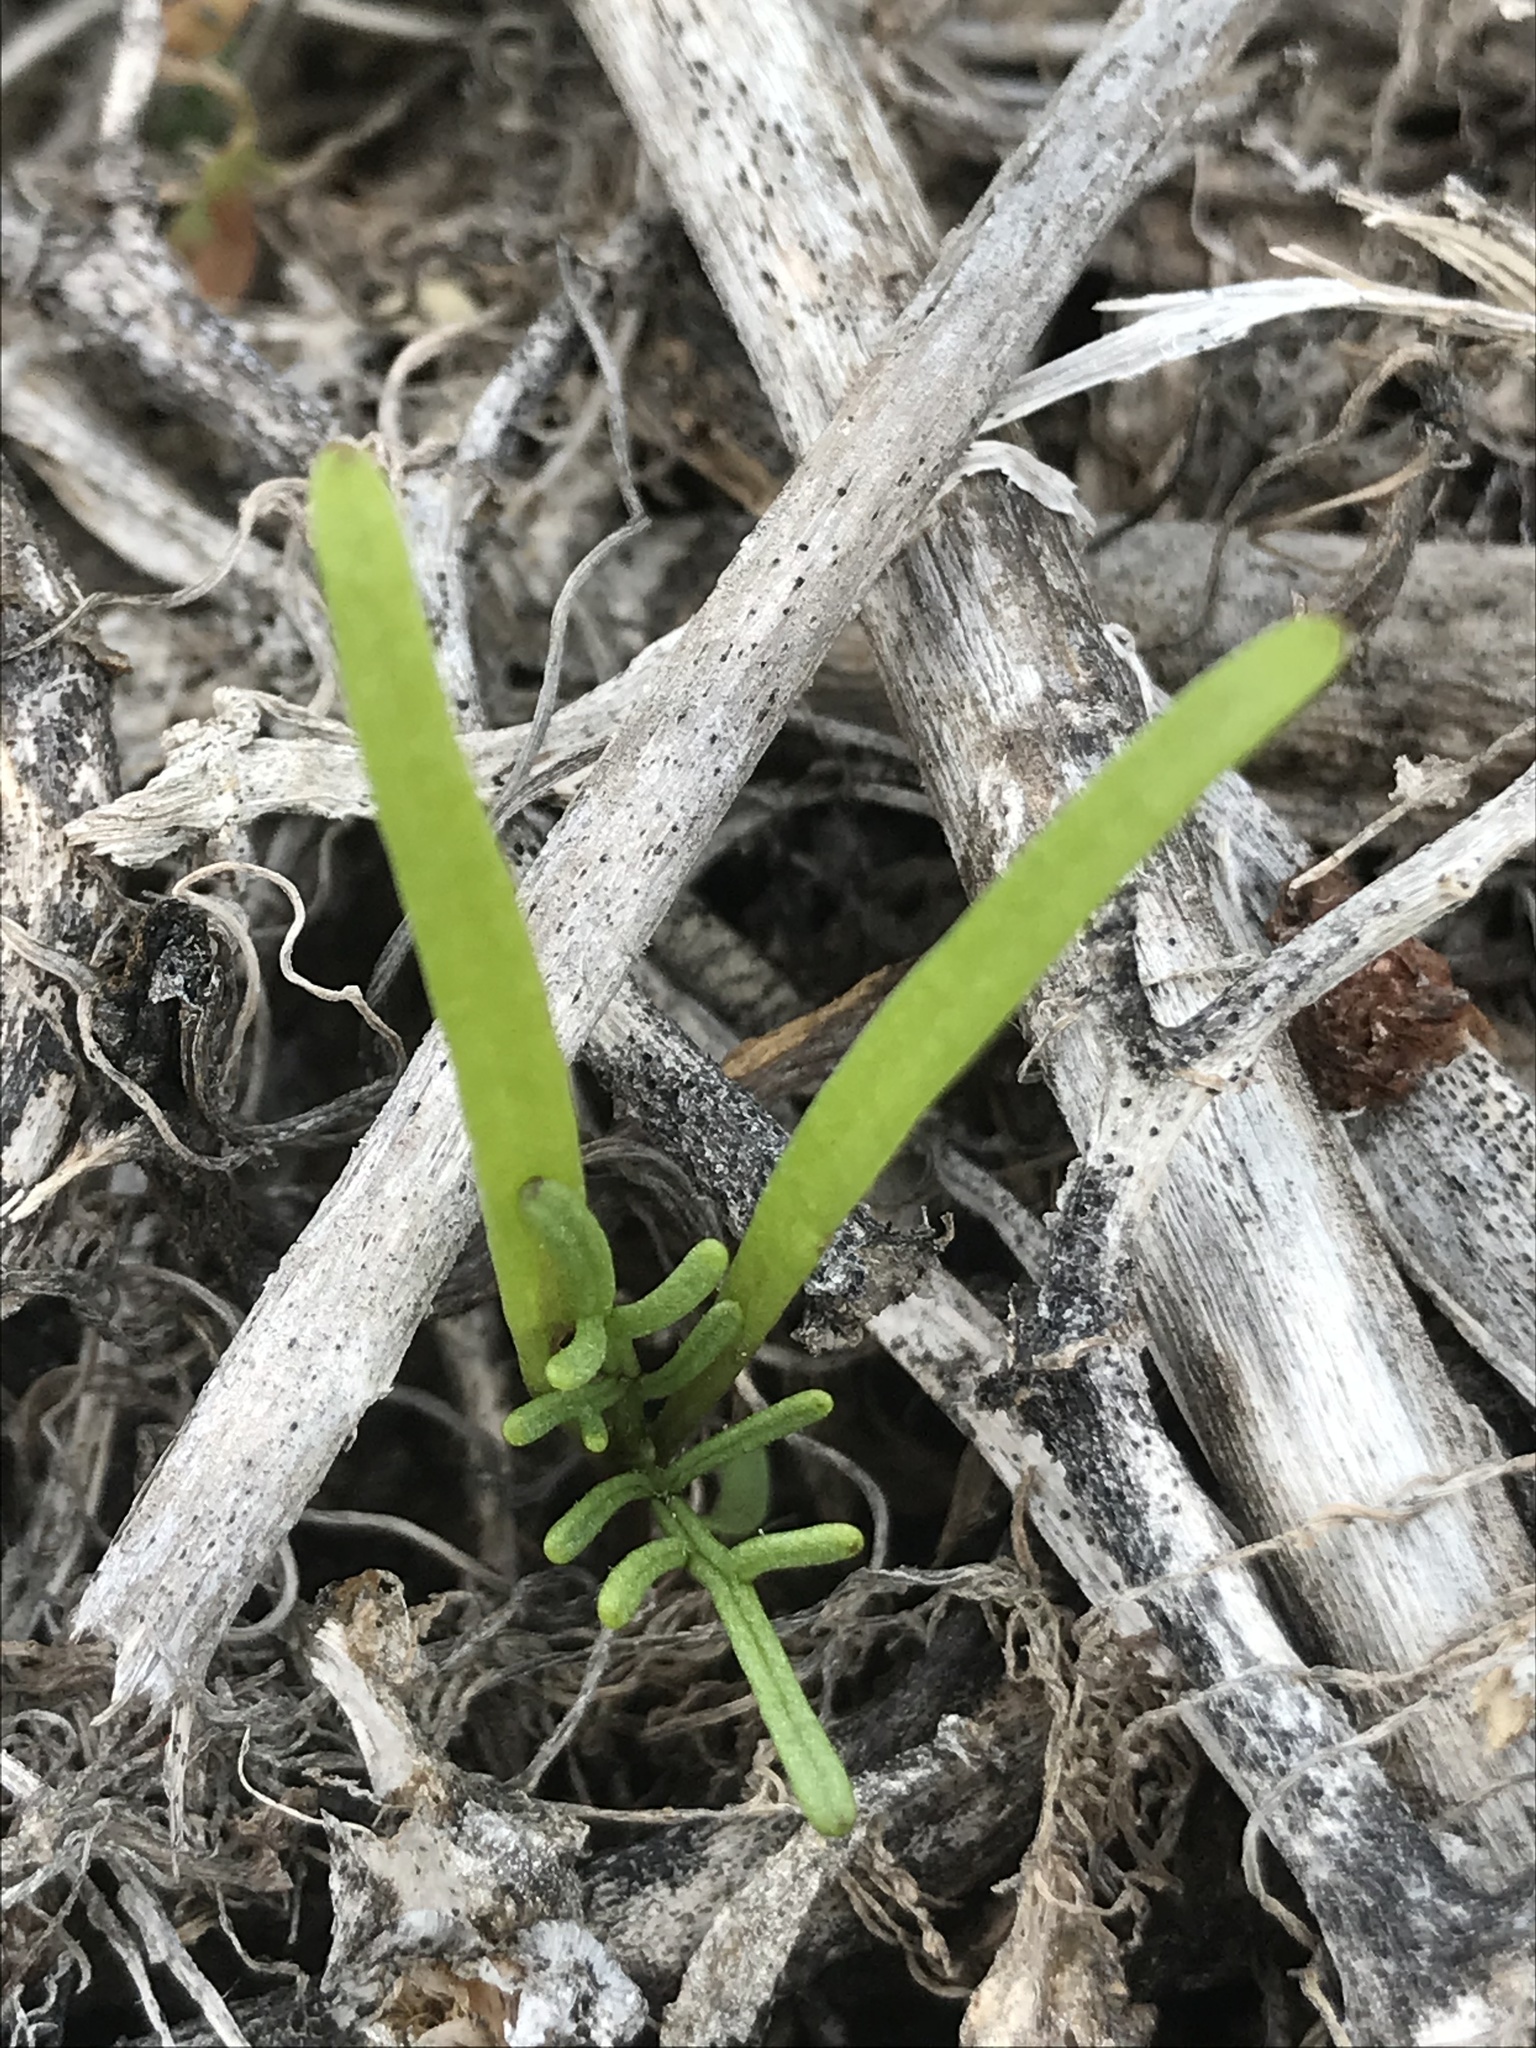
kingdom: Plantae
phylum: Tracheophyta
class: Magnoliopsida
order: Asterales
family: Asteraceae
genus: Coreopsis
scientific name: Coreopsis gigantea
